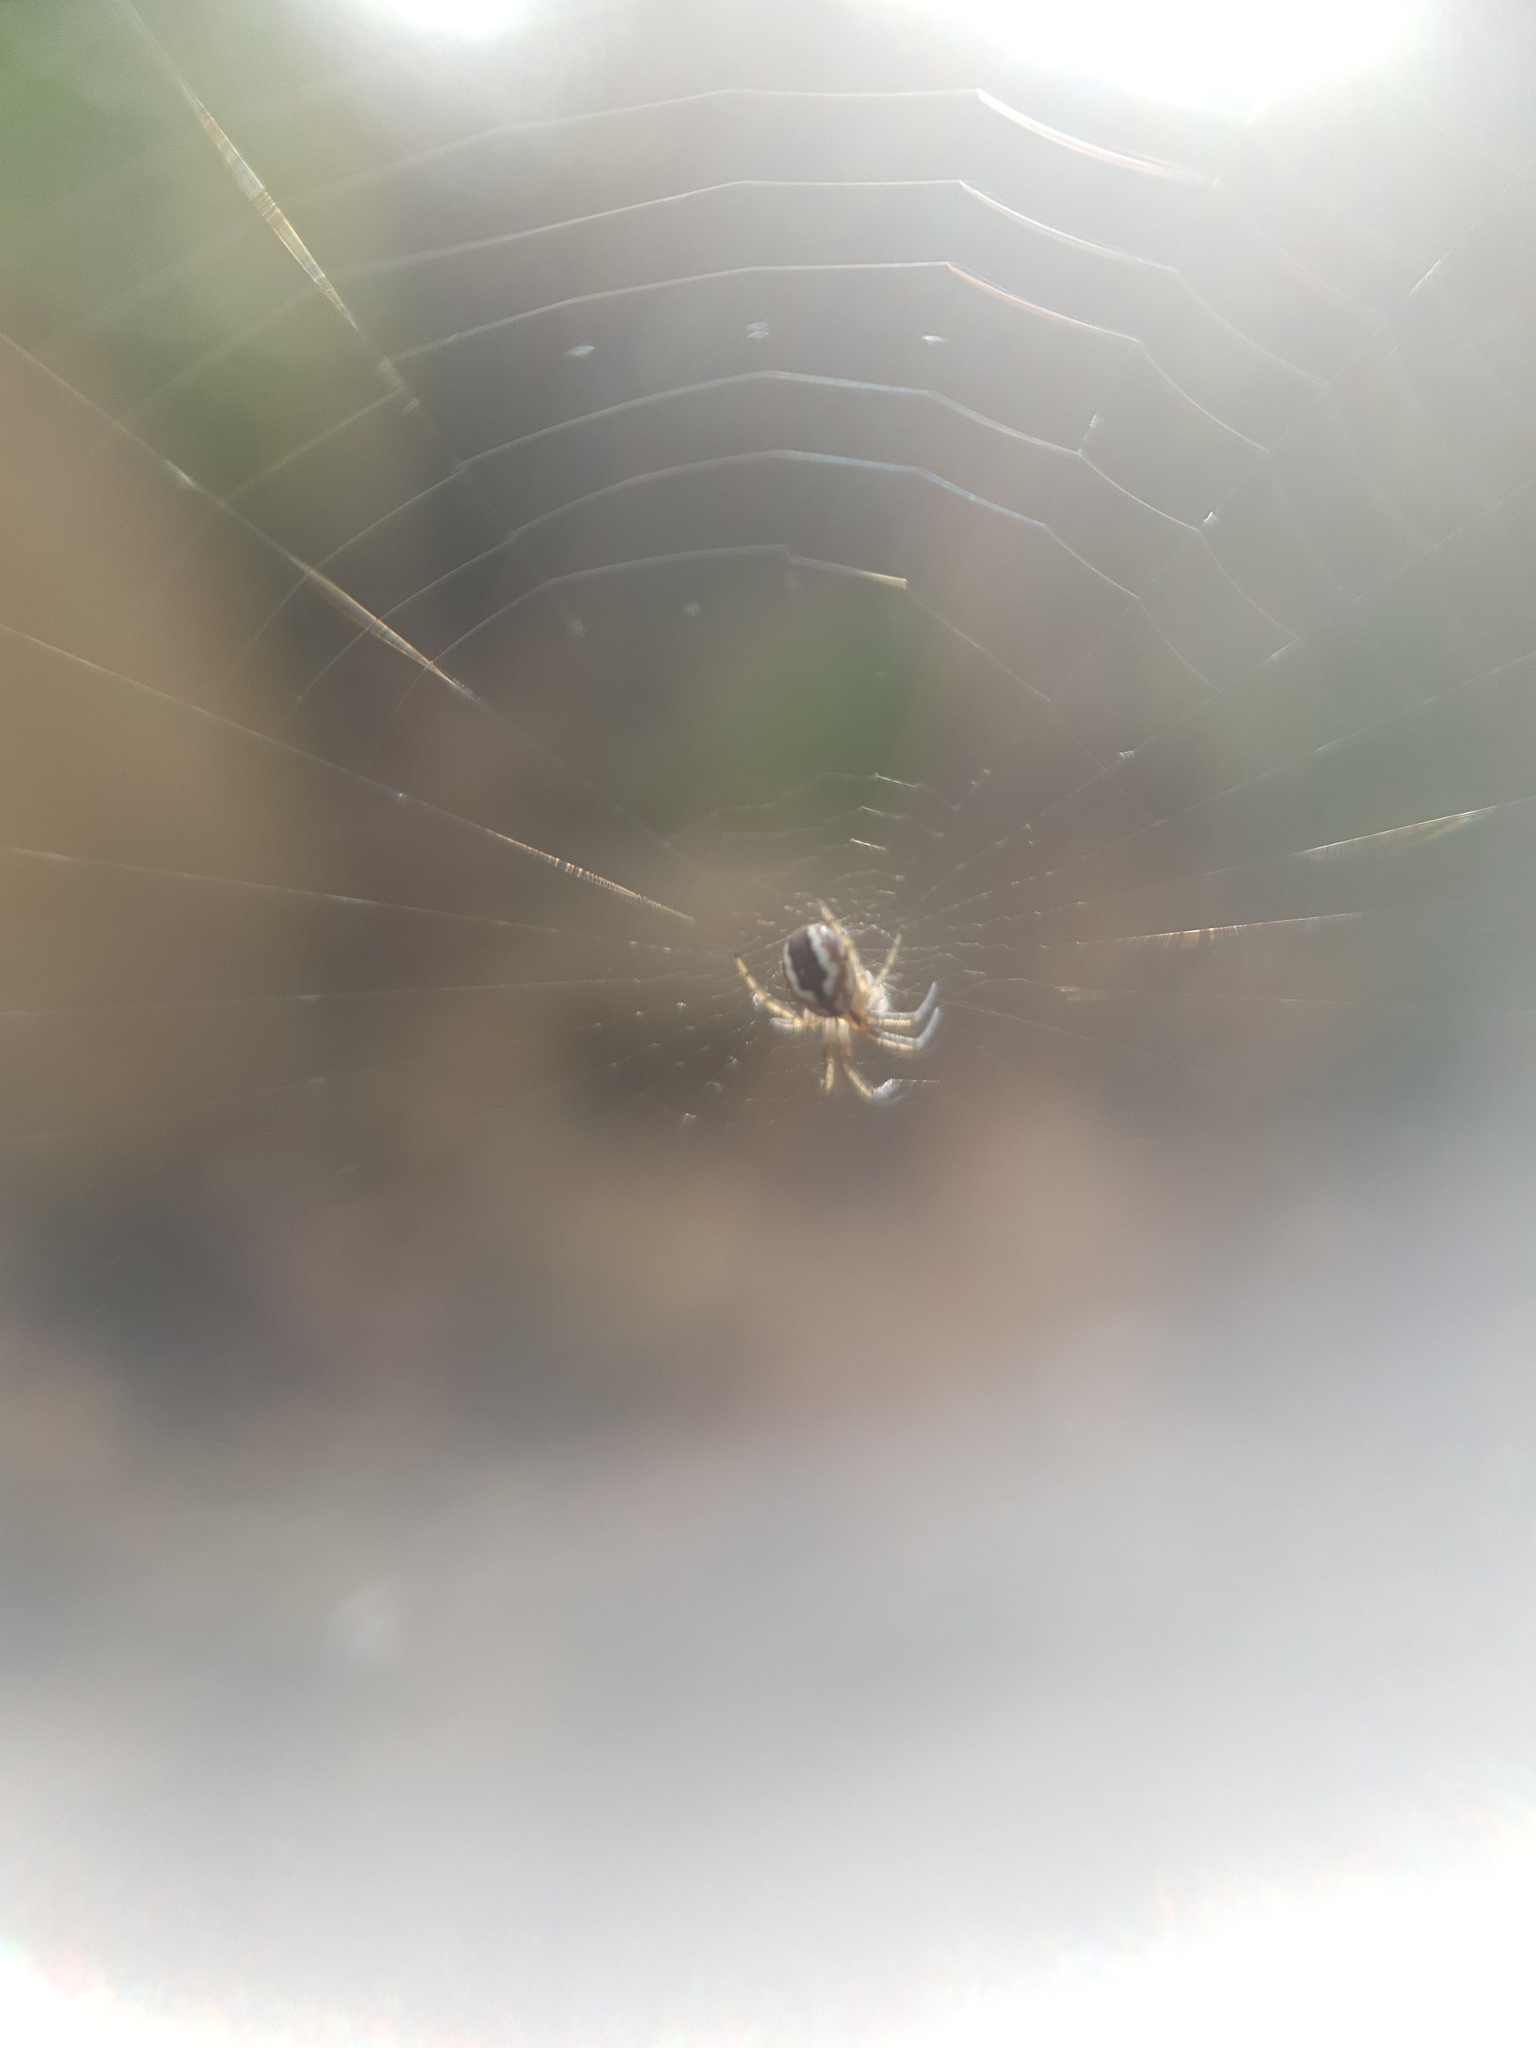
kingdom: Animalia
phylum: Arthropoda
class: Arachnida
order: Araneae
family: Araneidae
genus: Mangora
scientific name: Mangora acalypha
